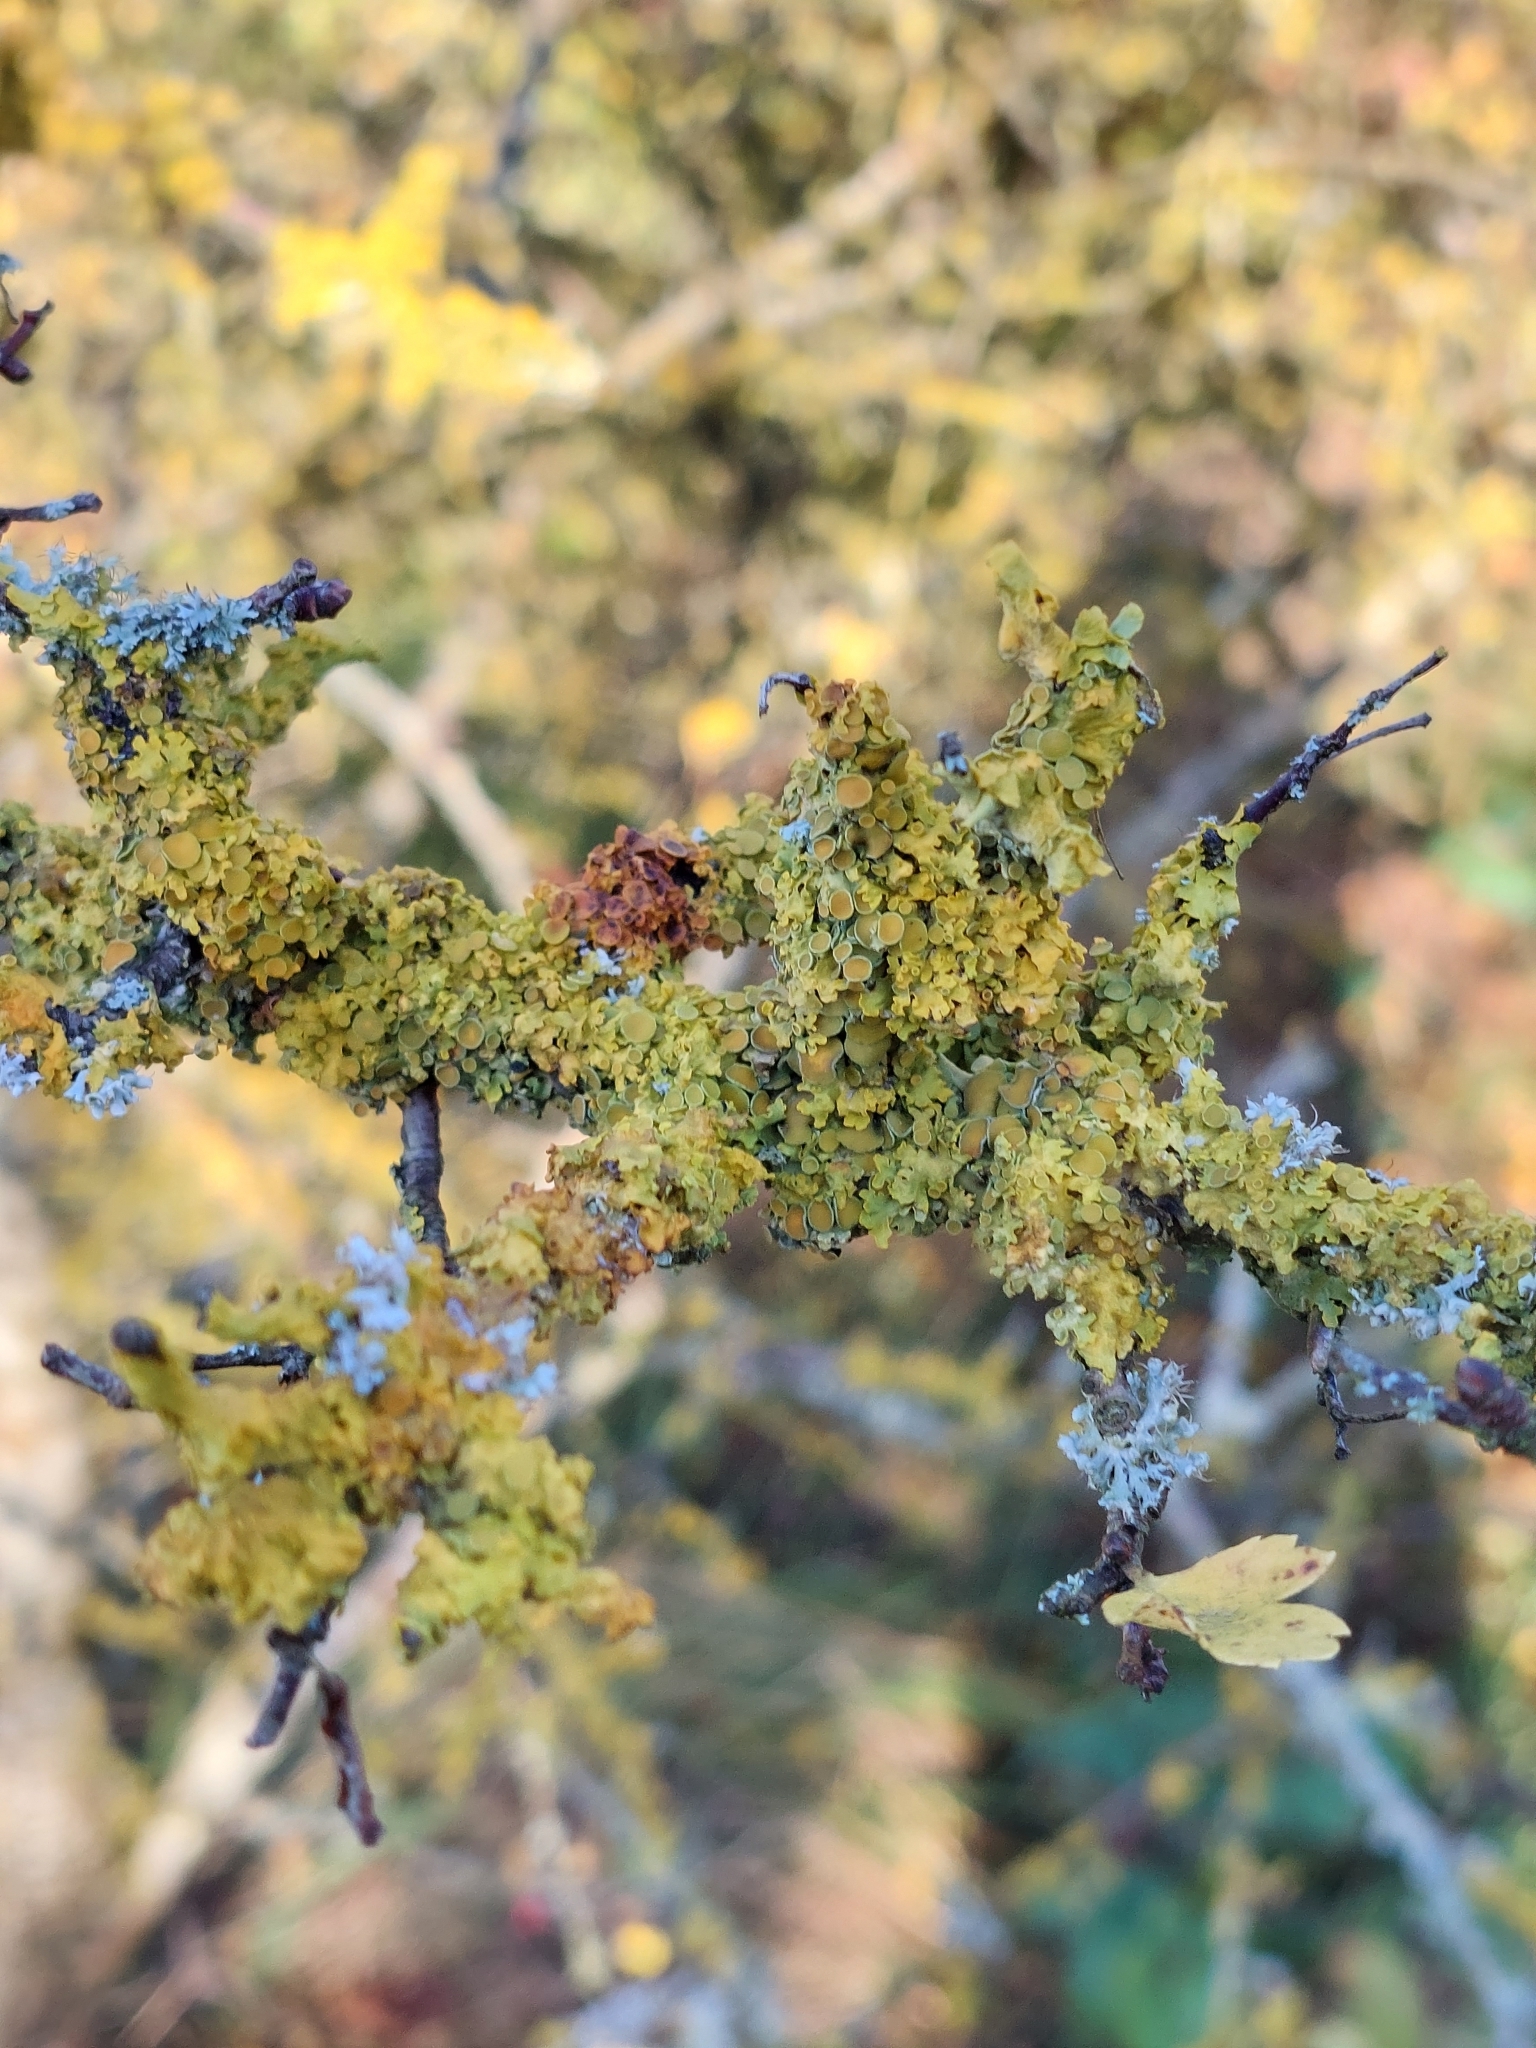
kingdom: Fungi
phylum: Ascomycota
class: Lecanoromycetes
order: Teloschistales
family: Teloschistaceae
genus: Xanthoria
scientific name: Xanthoria parietina
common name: Common orange lichen
